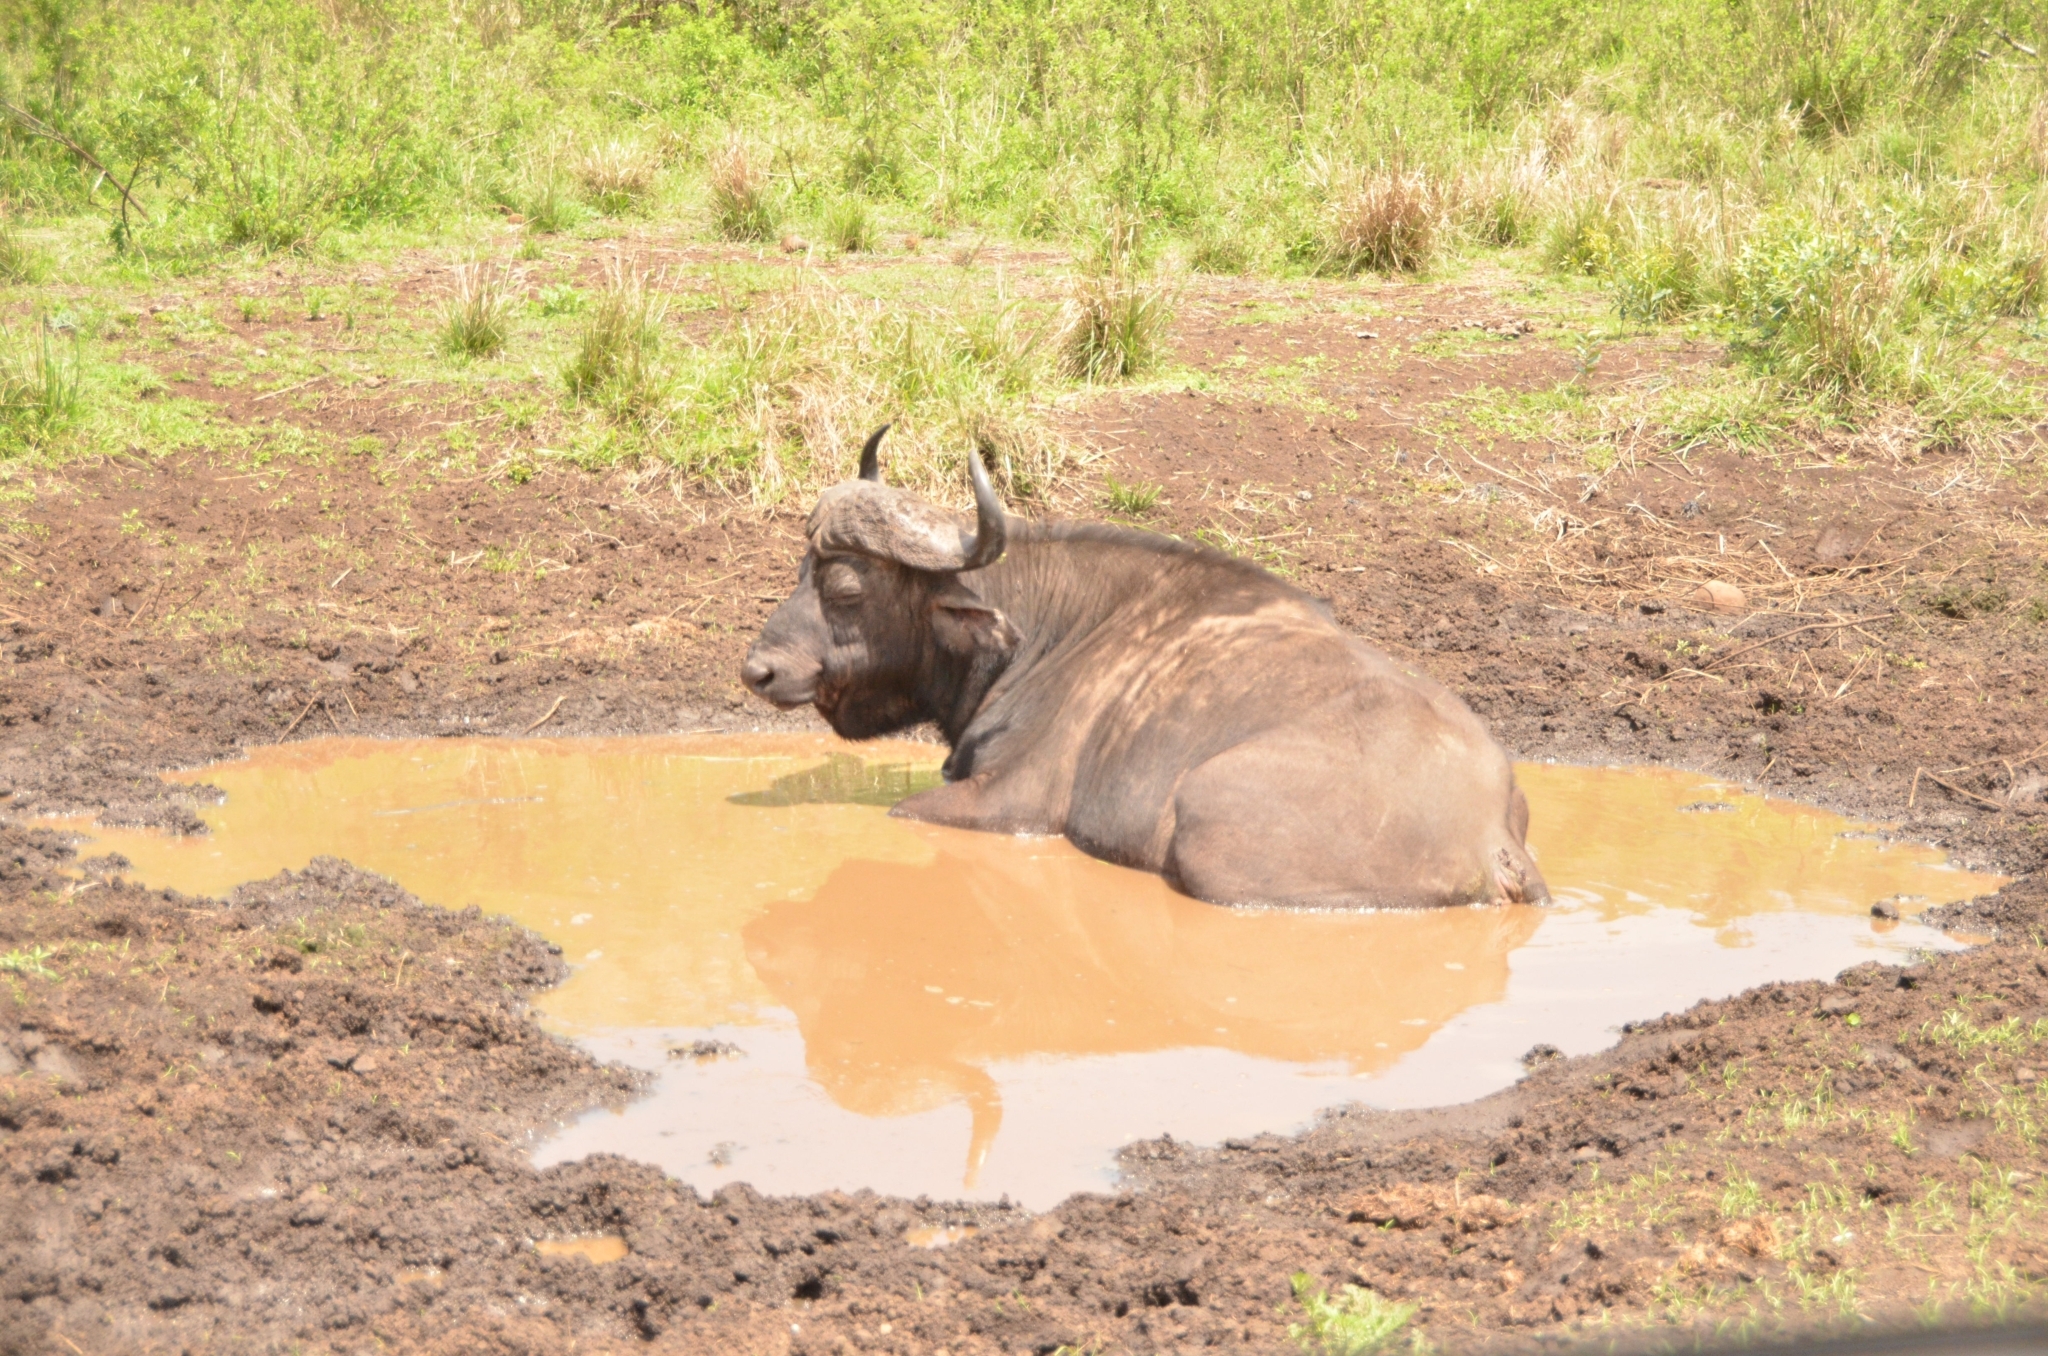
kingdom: Animalia
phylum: Chordata
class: Mammalia
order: Artiodactyla
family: Bovidae
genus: Syncerus
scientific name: Syncerus caffer
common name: African buffalo
